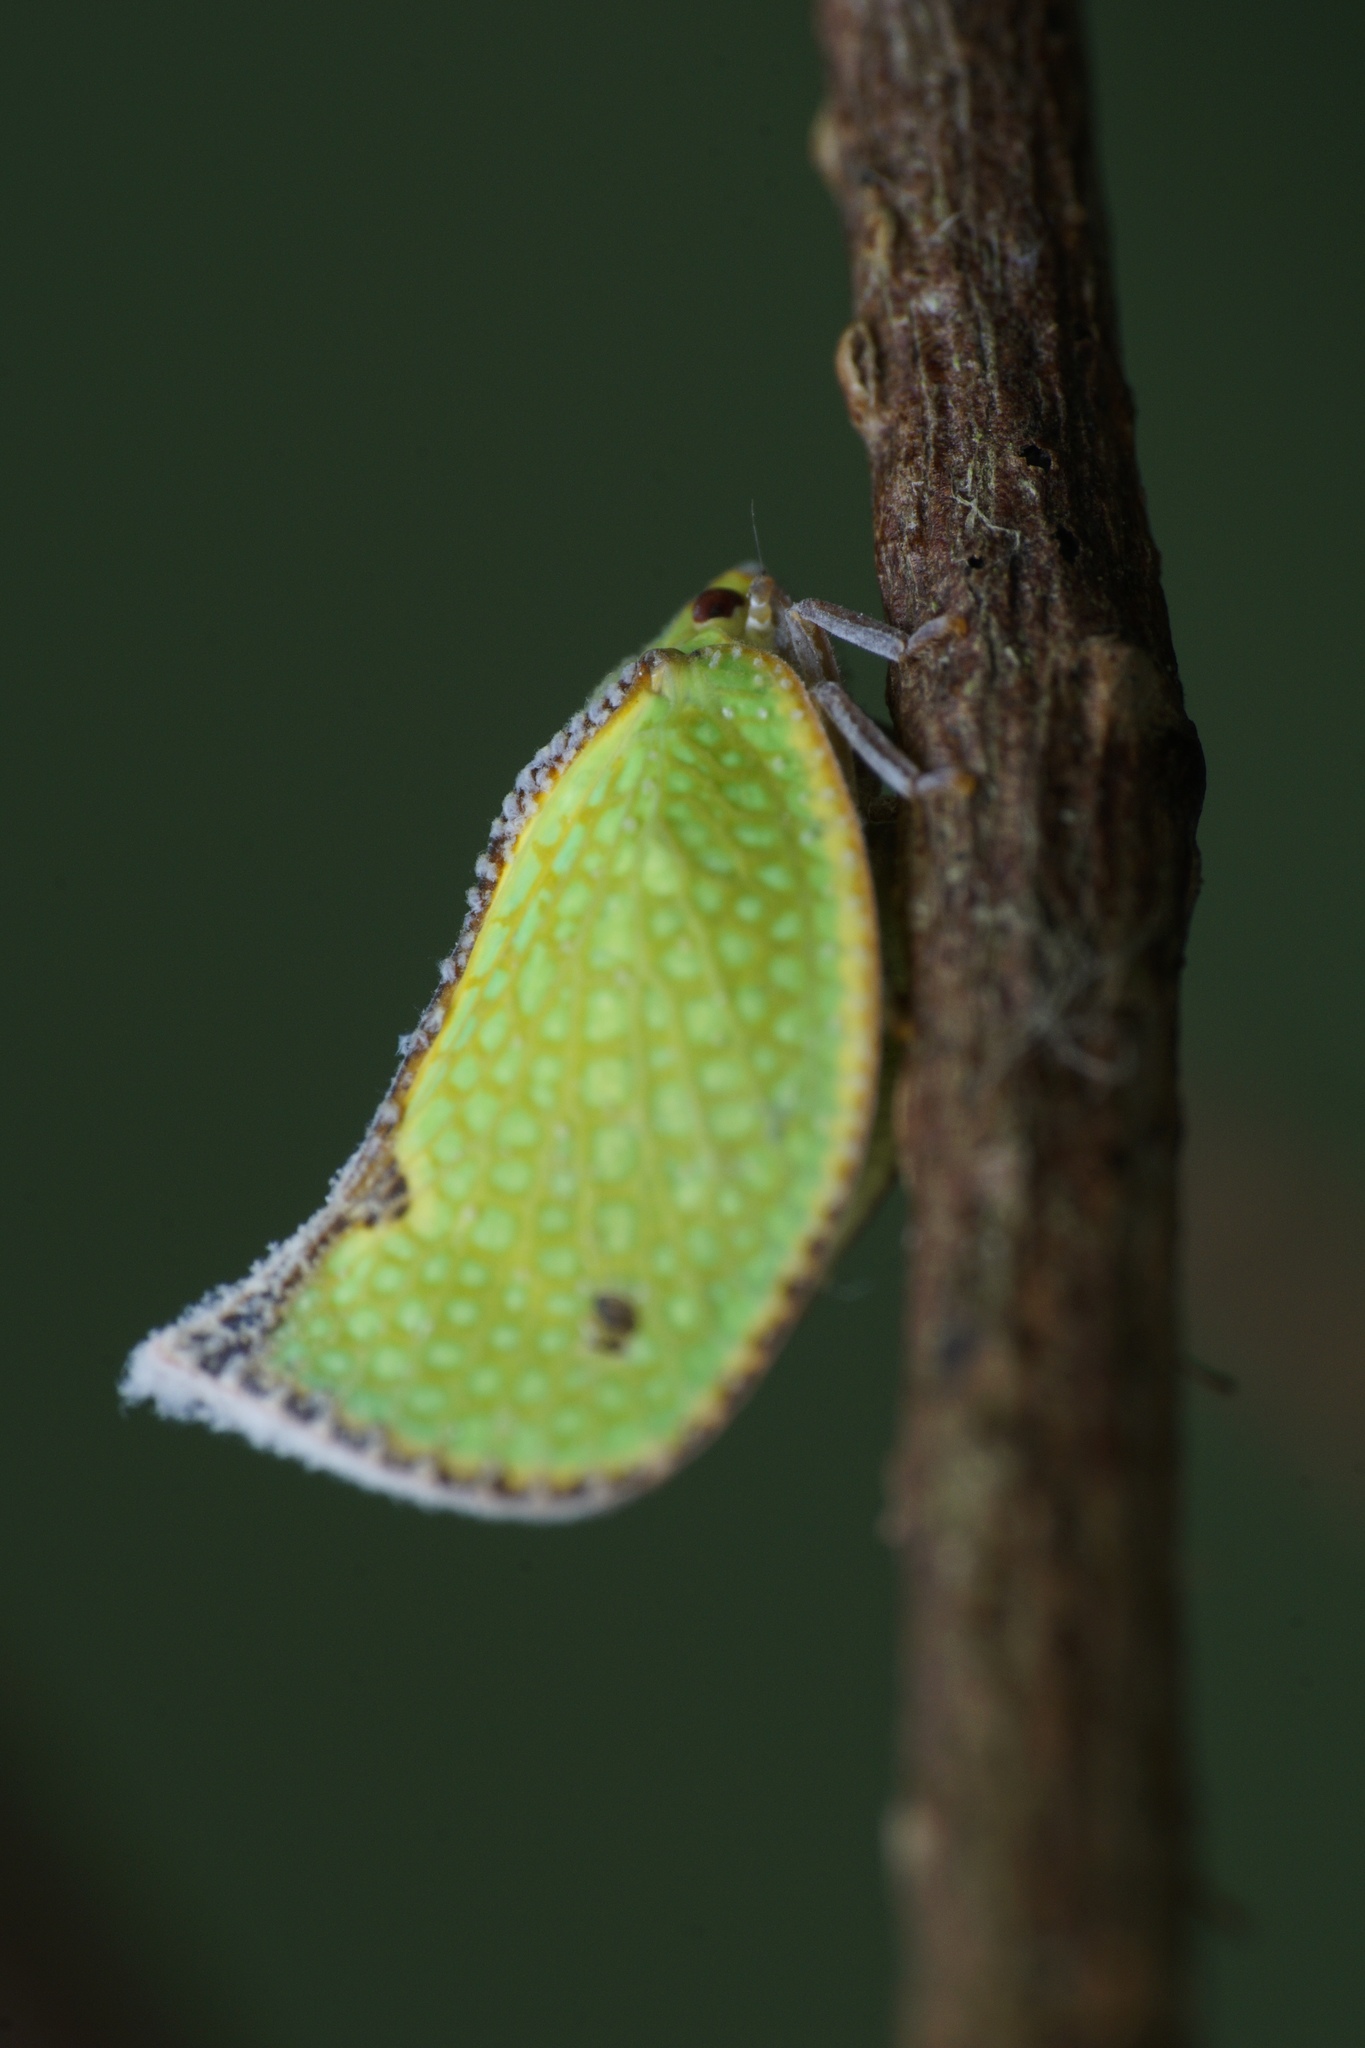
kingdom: Animalia
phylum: Arthropoda
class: Insecta
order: Hemiptera
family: Flatidae
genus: Salurnis
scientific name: Salurnis marginella
